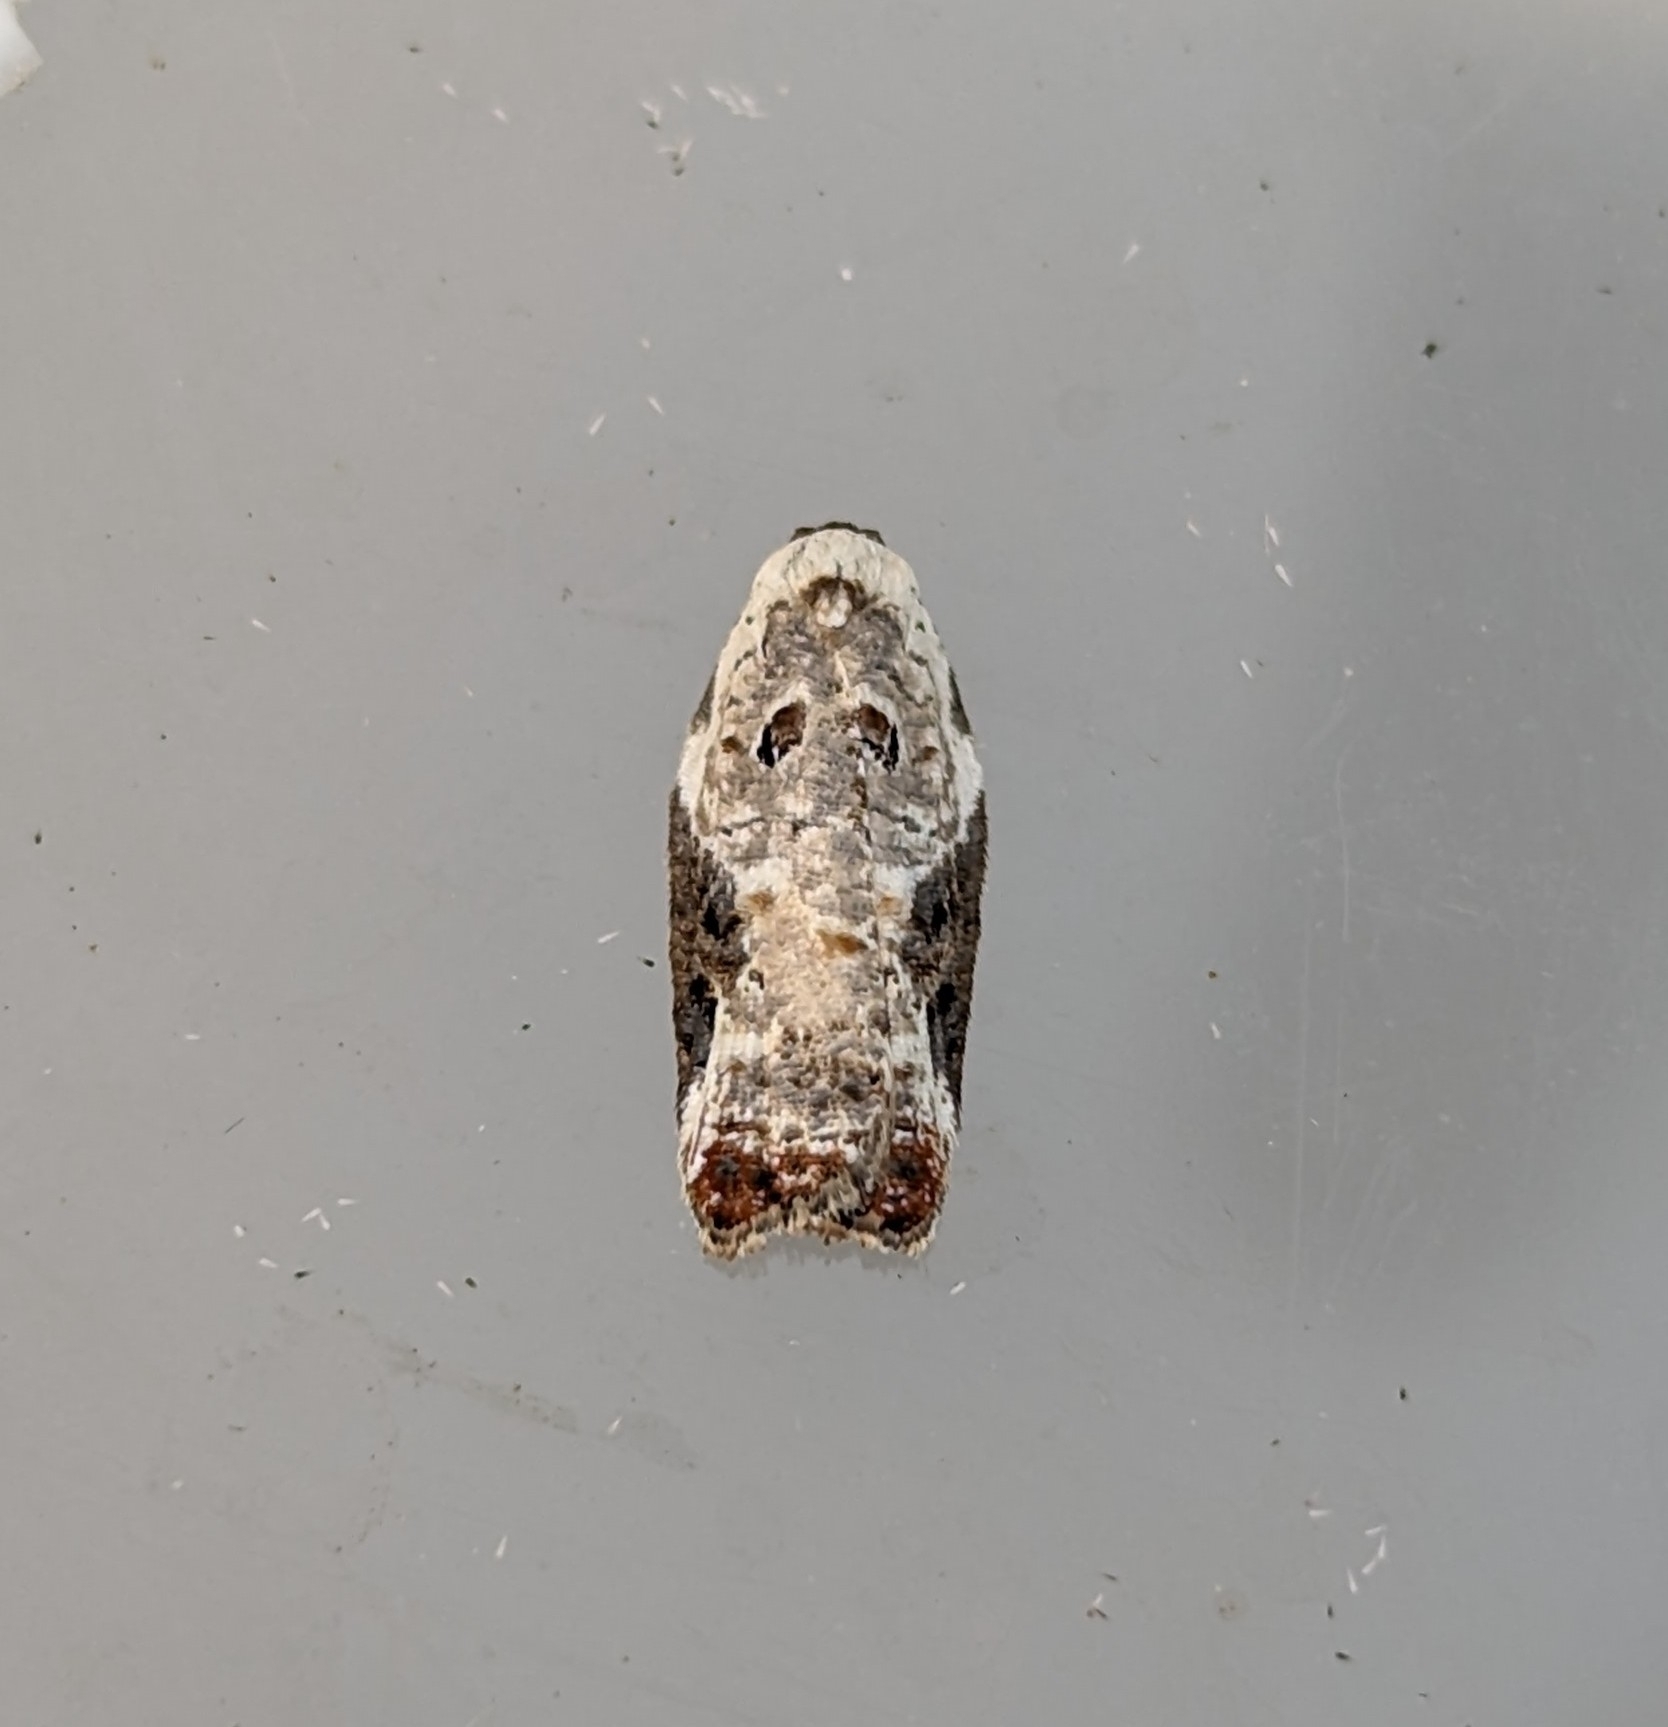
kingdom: Animalia
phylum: Arthropoda
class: Insecta
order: Lepidoptera
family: Tortricidae
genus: Acleris
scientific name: Acleris nivisellana
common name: Snowy-shouldered acleris moth
